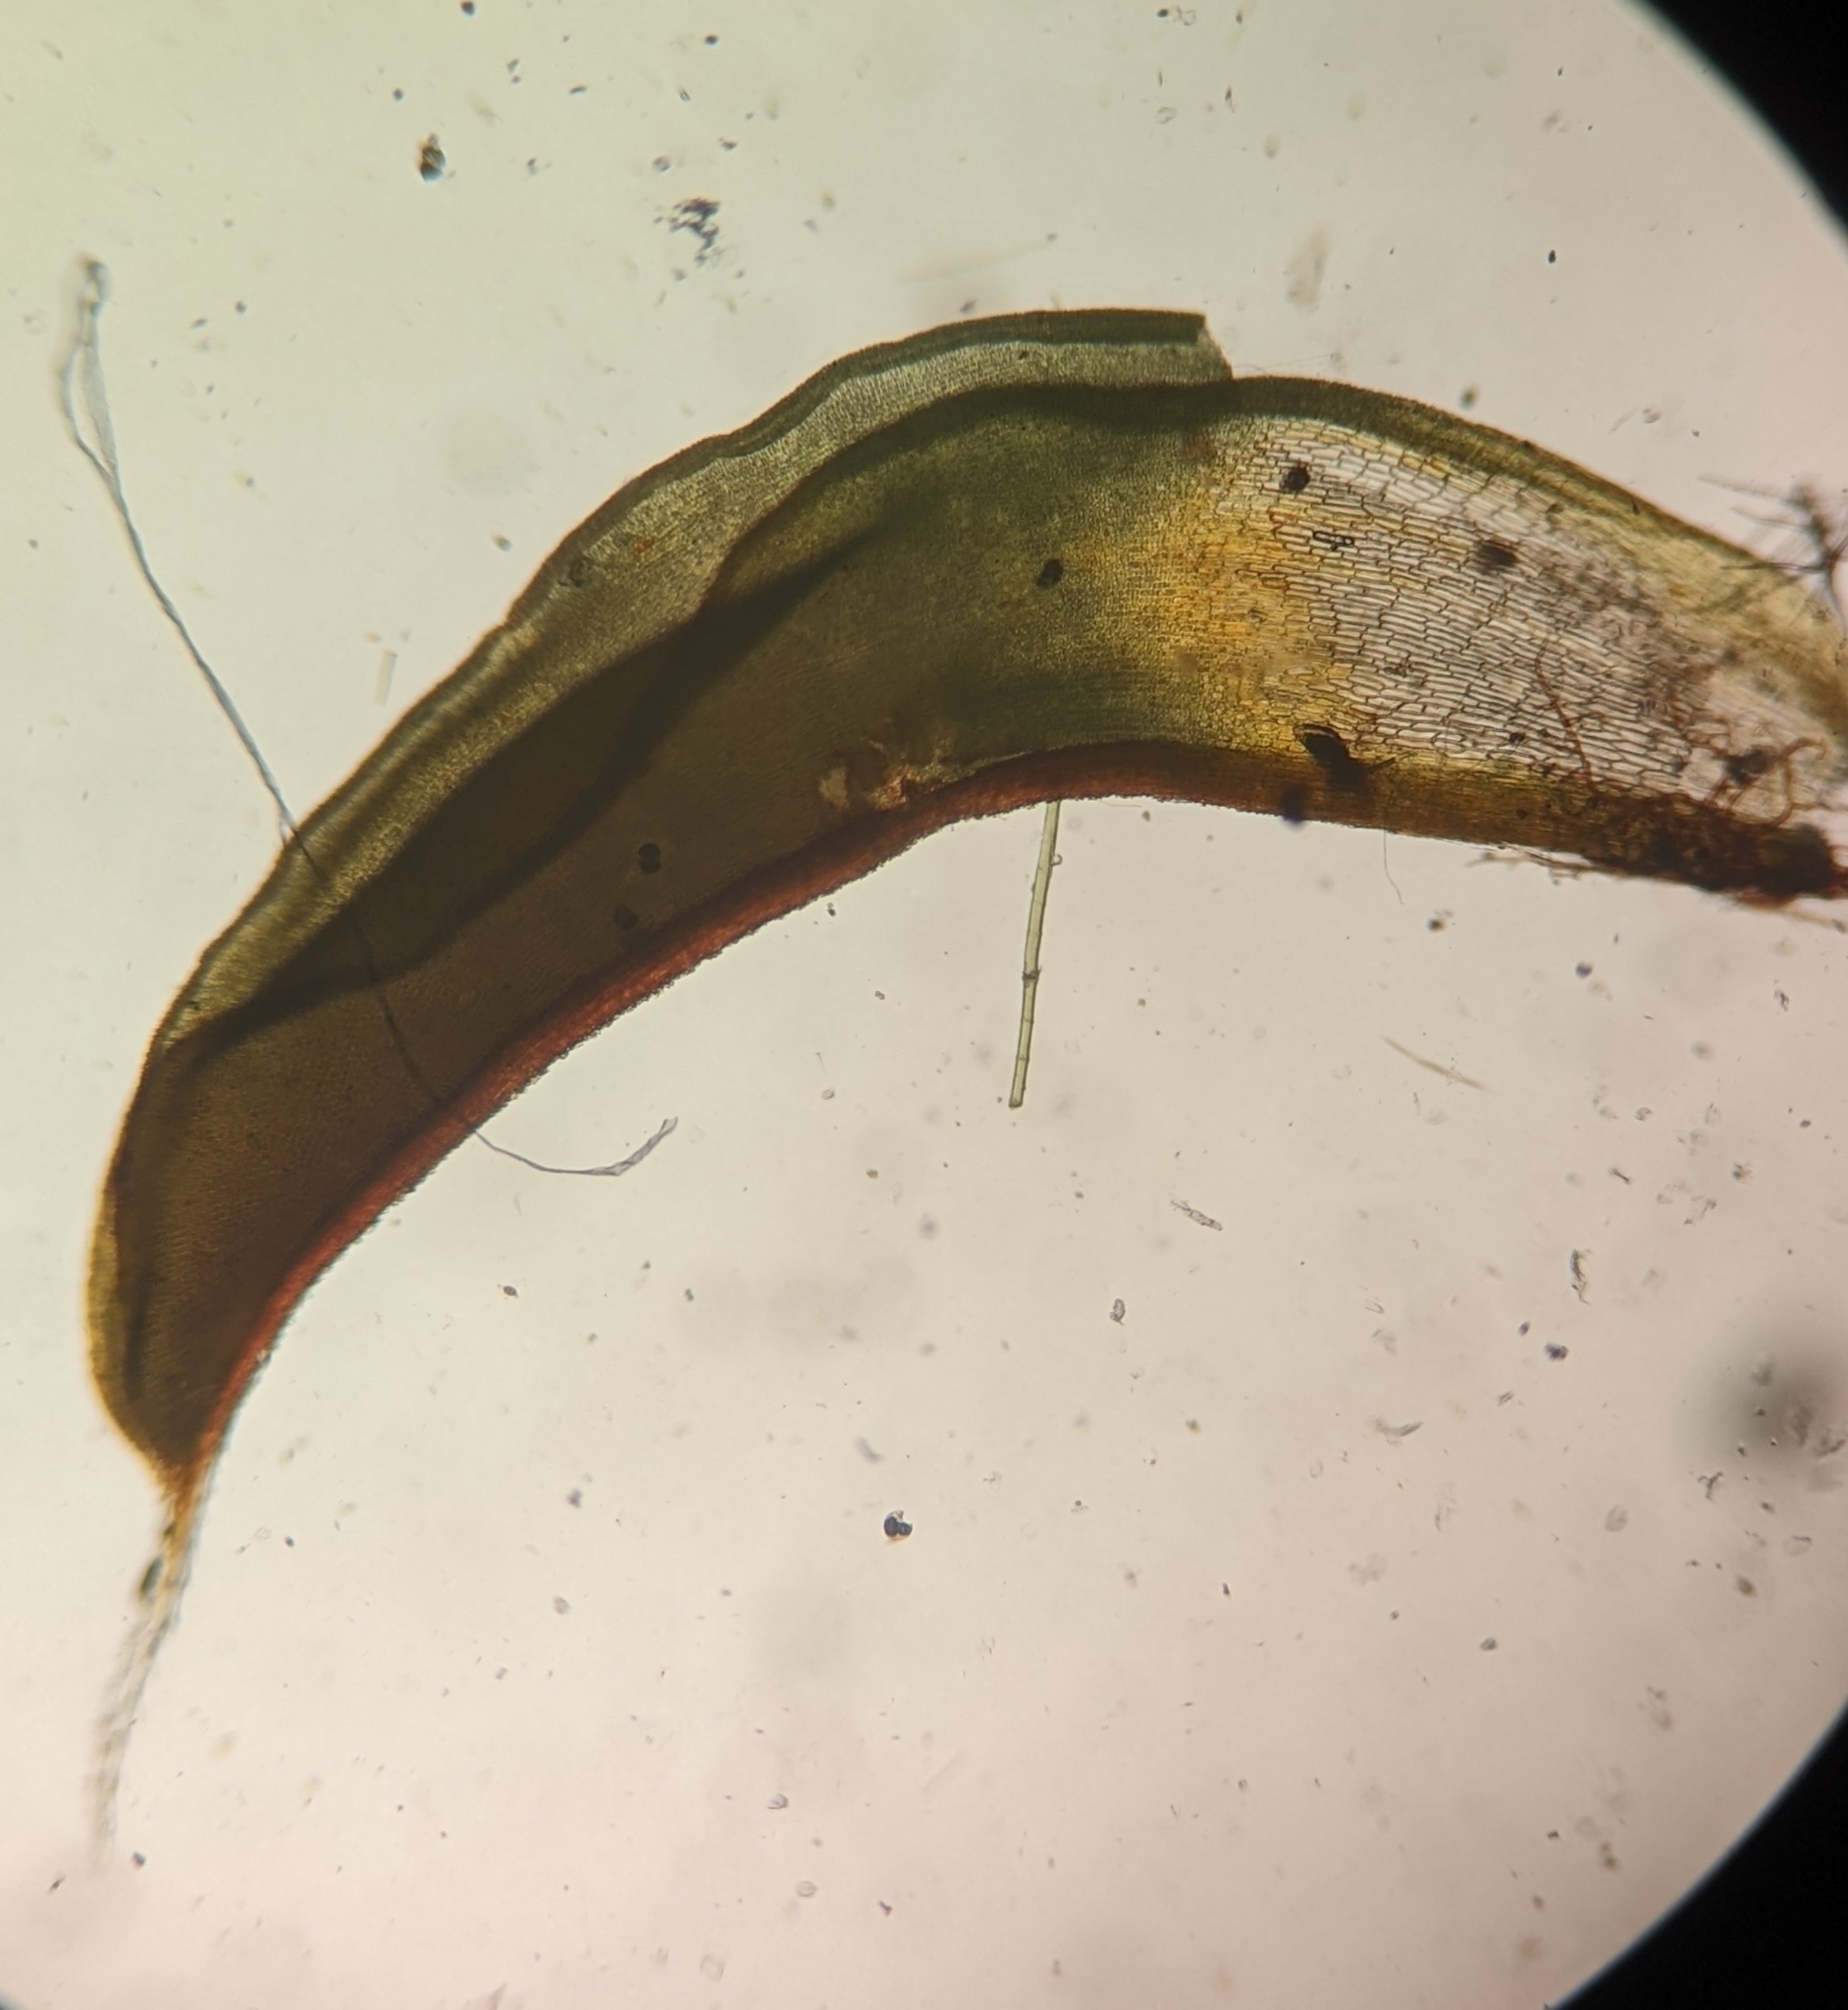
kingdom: Plantae
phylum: Bryophyta
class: Bryopsida
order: Pottiales
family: Pottiaceae
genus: Syntrichia
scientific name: Syntrichia ruralis
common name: Sidewalk screw moss
